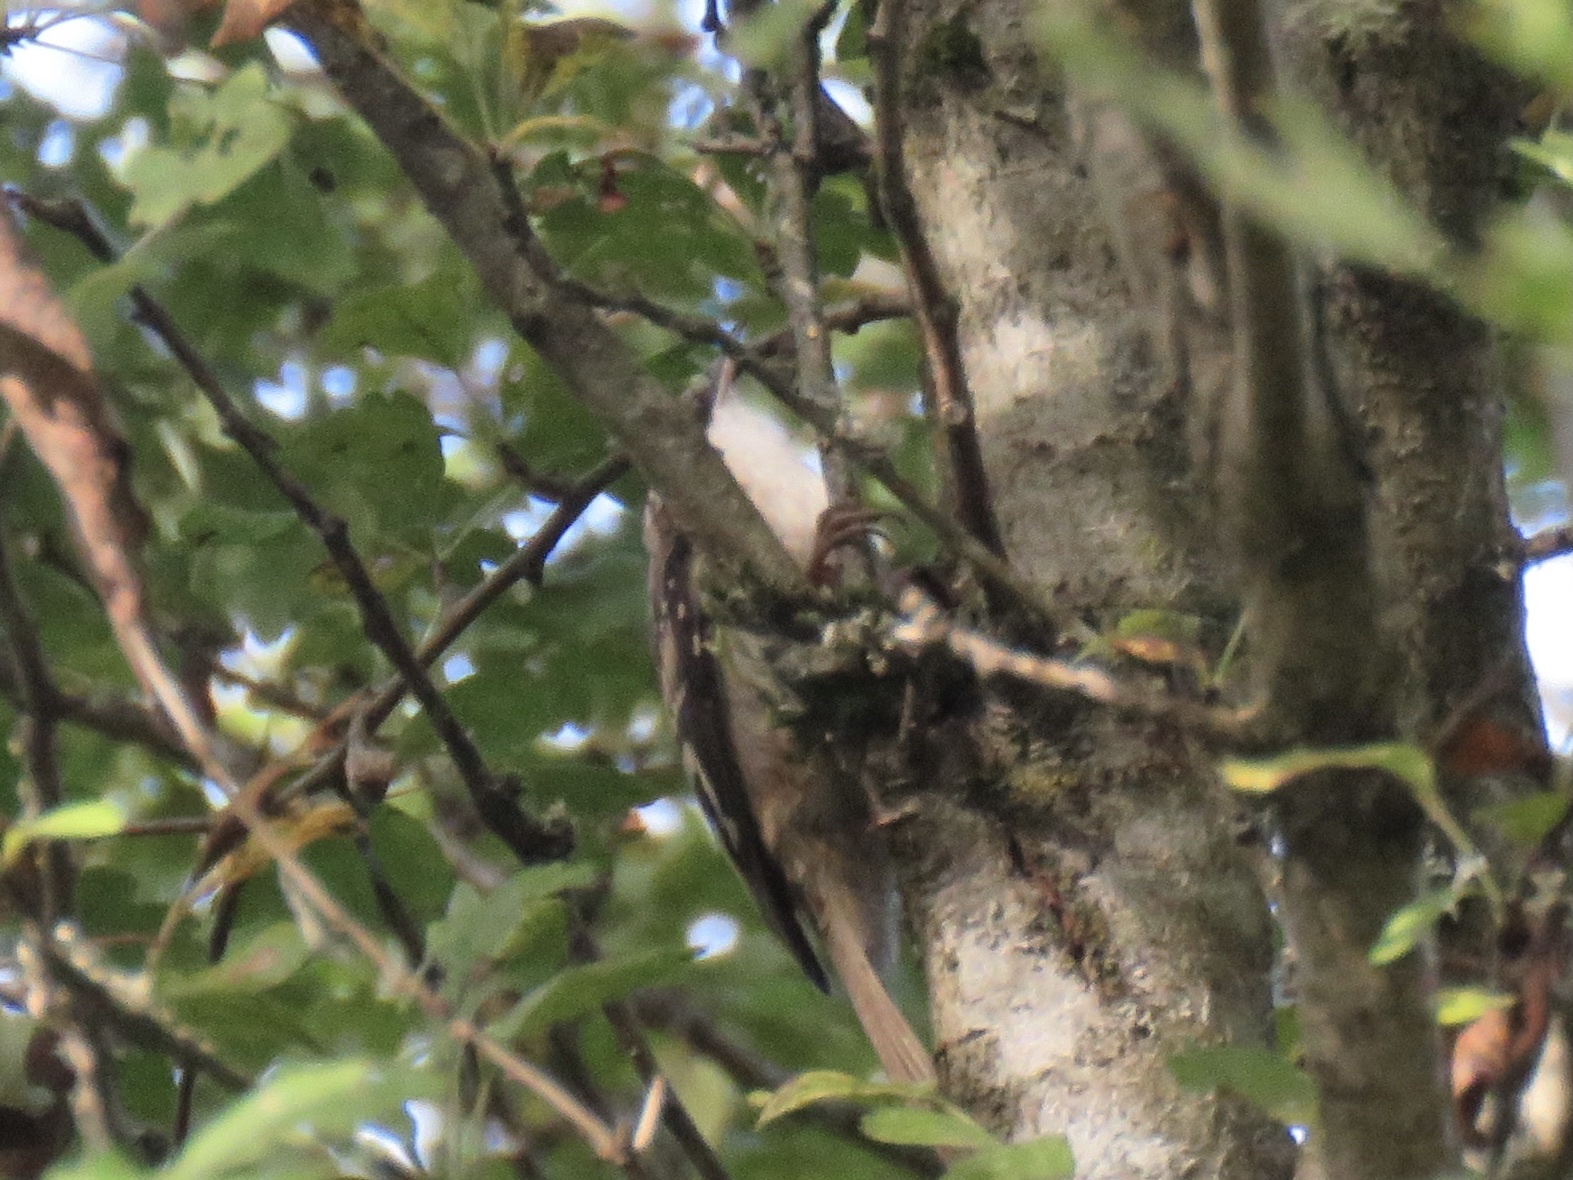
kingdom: Animalia
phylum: Chordata
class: Aves
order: Passeriformes
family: Certhiidae
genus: Certhia
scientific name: Certhia americana
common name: Brown creeper
